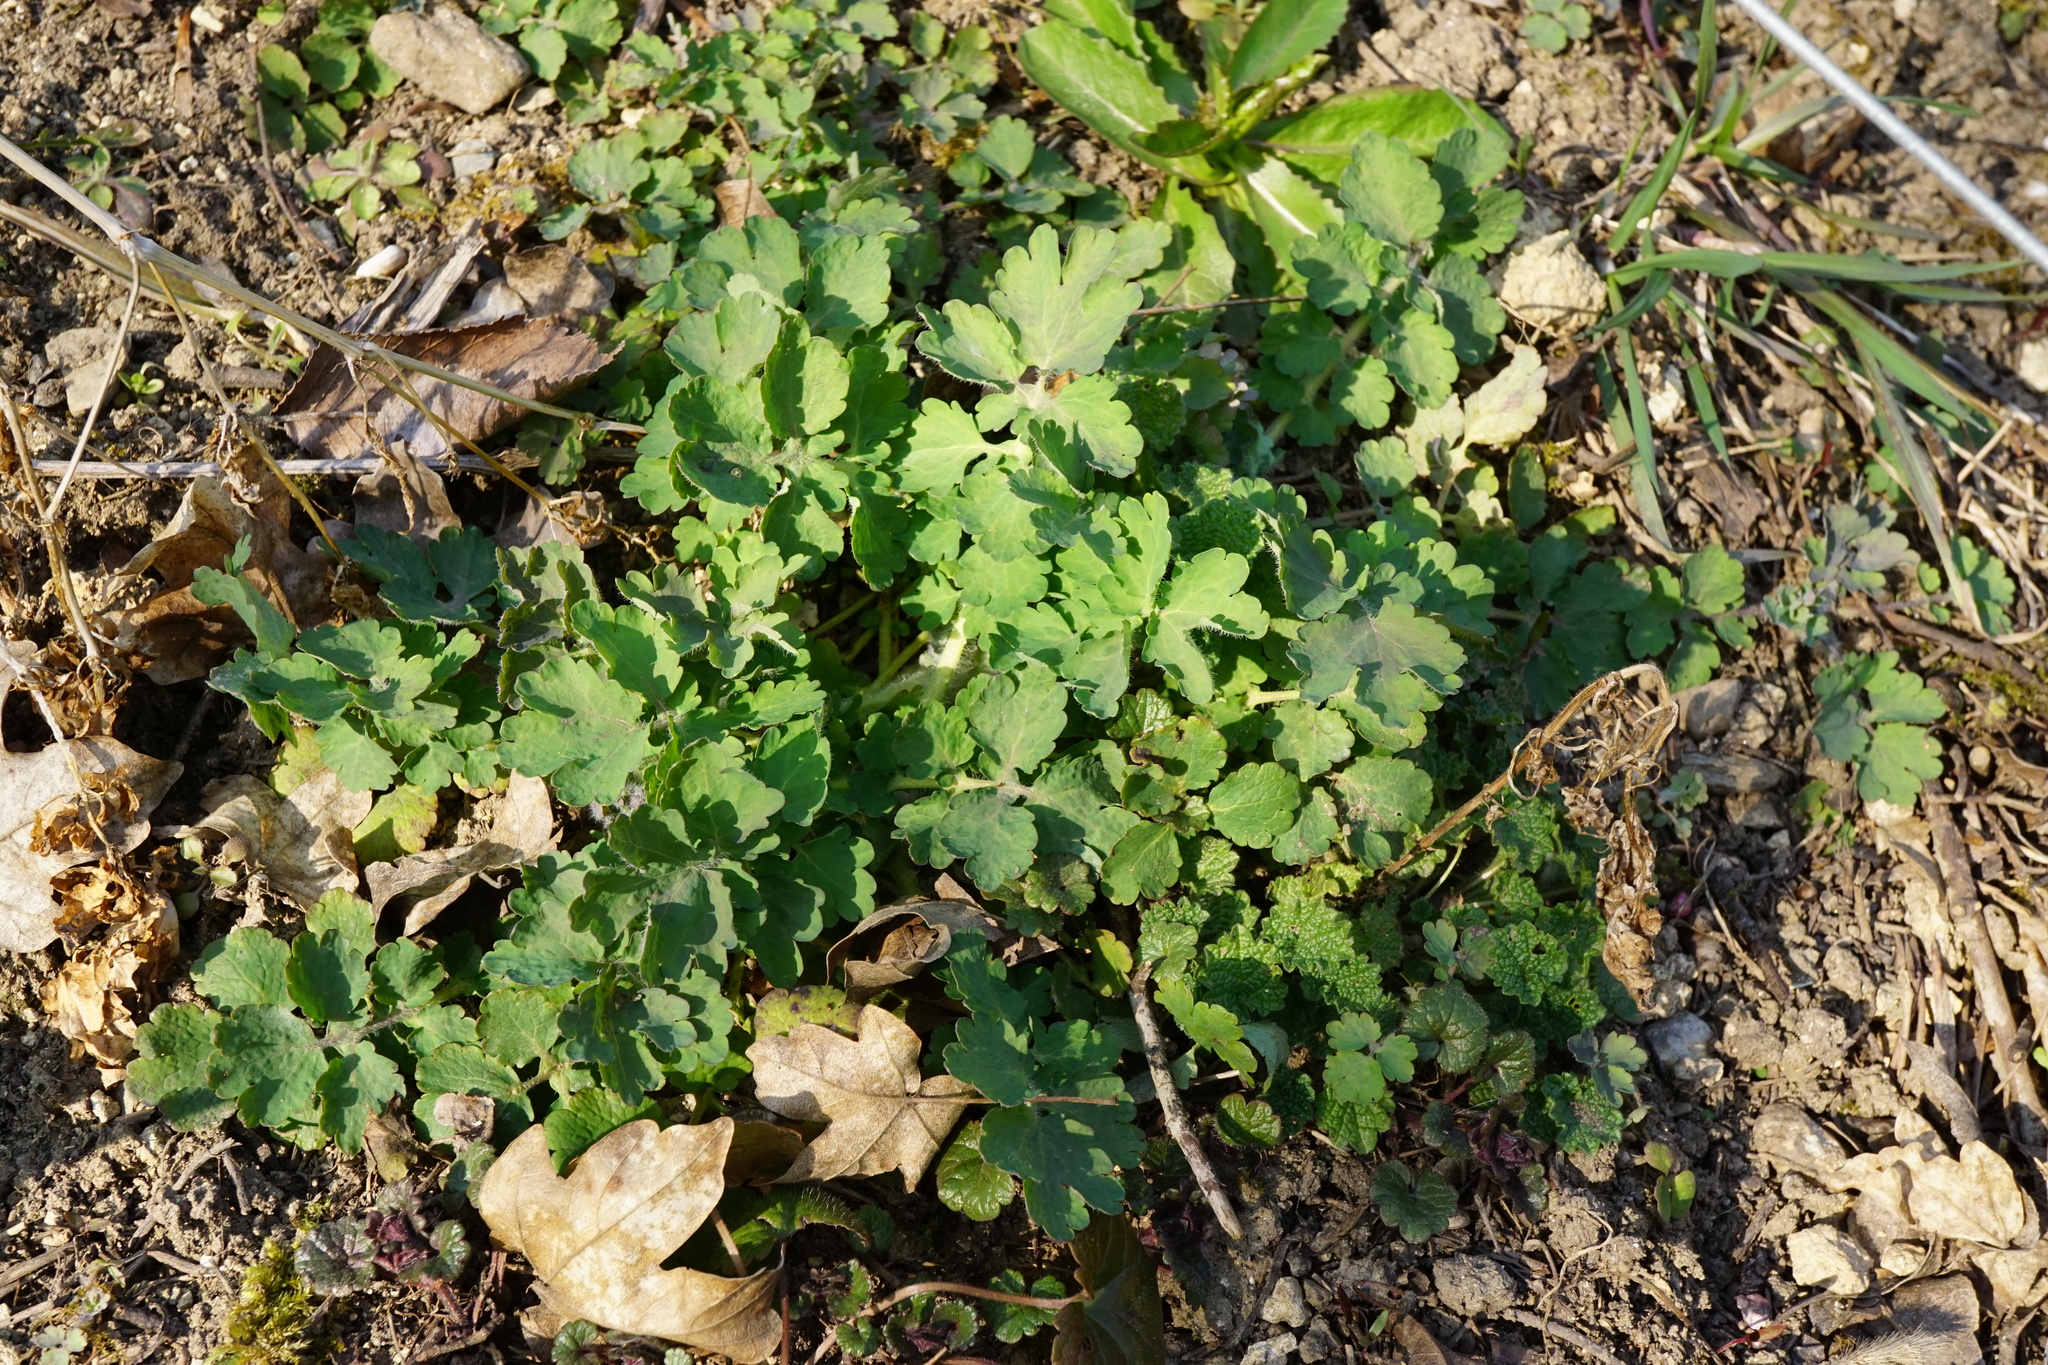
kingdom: Plantae
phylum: Tracheophyta
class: Magnoliopsida
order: Ranunculales
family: Papaveraceae
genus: Chelidonium
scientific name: Chelidonium majus
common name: Greater celandine
